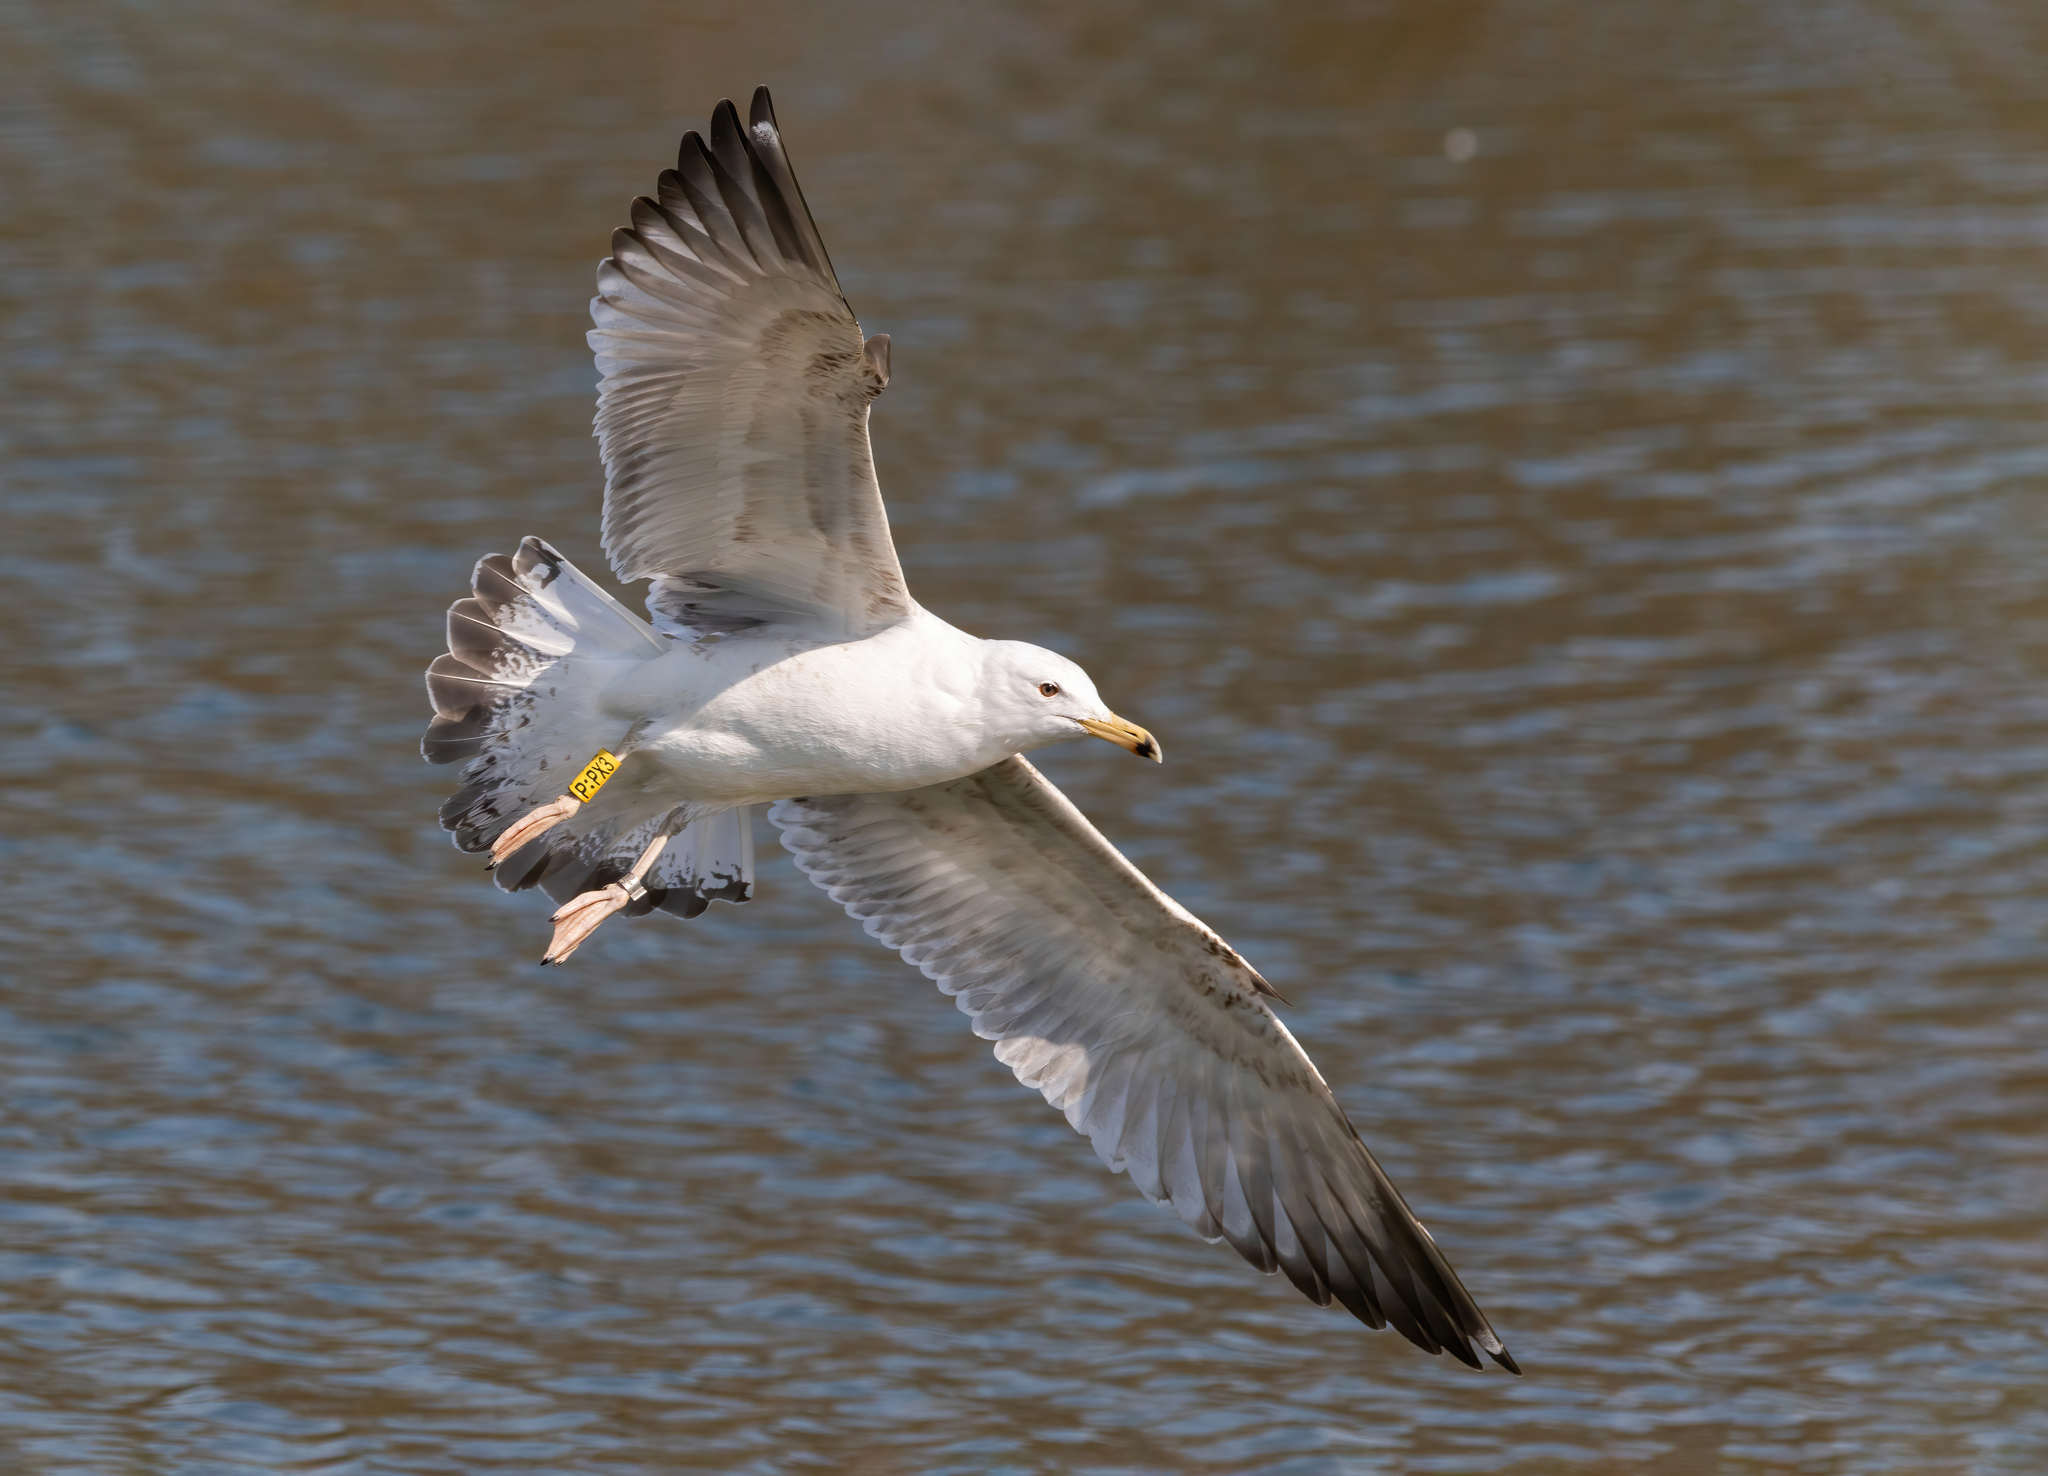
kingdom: Animalia
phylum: Chordata
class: Aves
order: Charadriiformes
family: Laridae
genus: Larus
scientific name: Larus cachinnans
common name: Caspian gull
